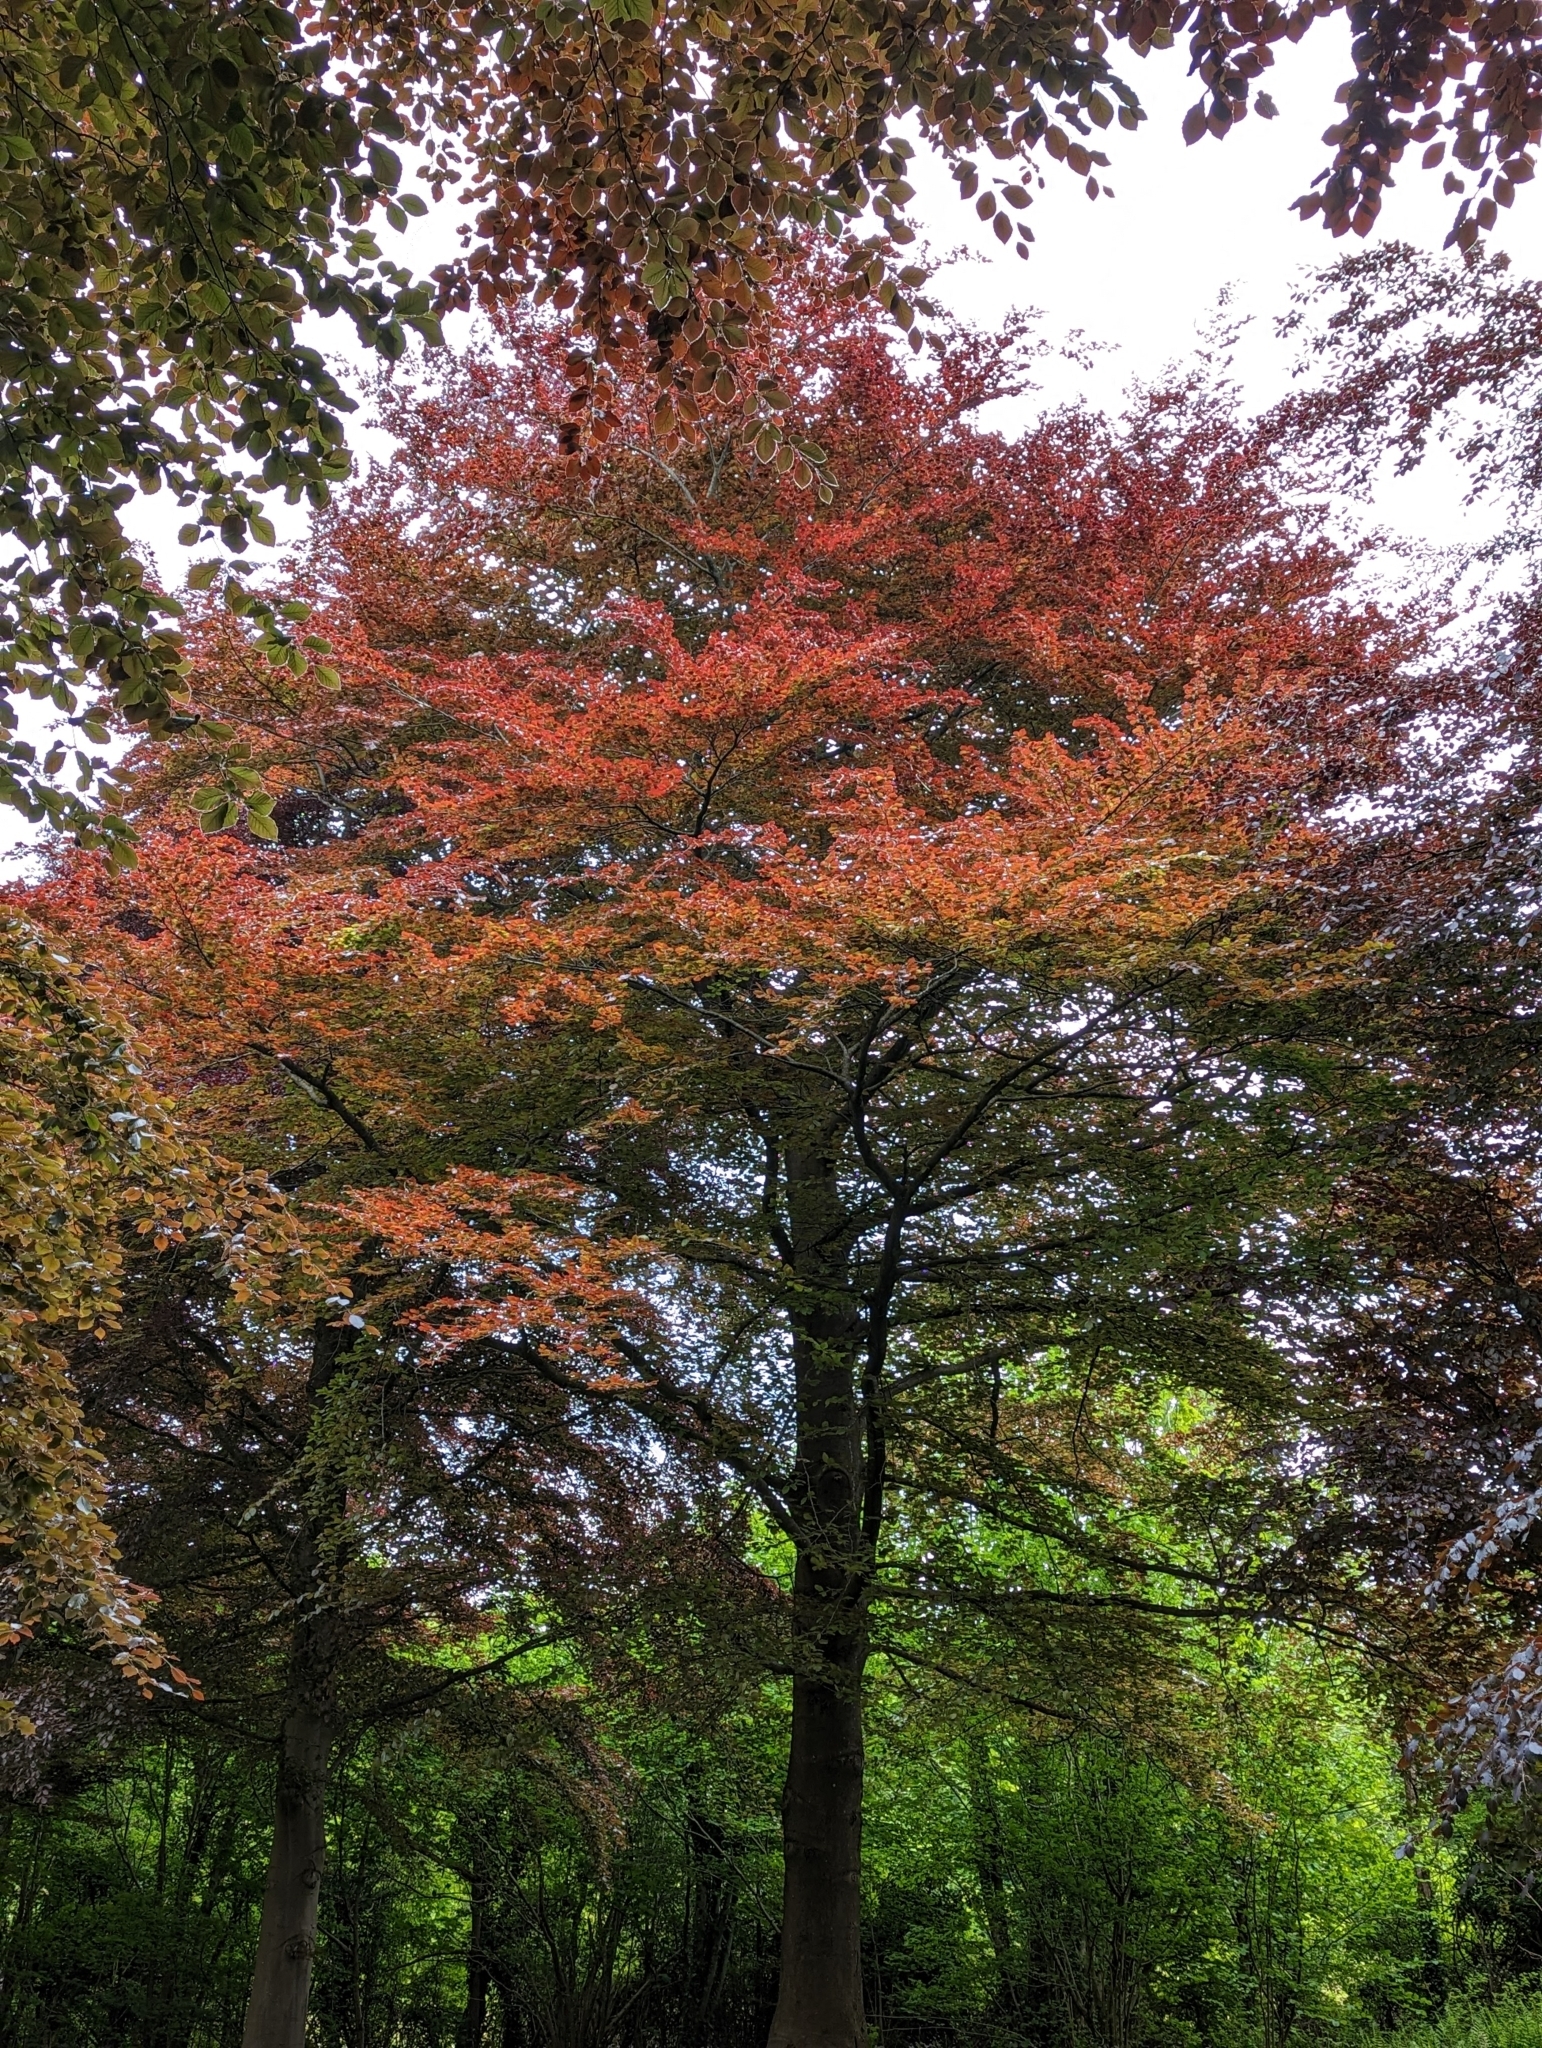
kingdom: Plantae
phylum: Tracheophyta
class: Magnoliopsida
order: Fagales
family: Fagaceae
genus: Fagus
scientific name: Fagus sylvatica
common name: Beech
